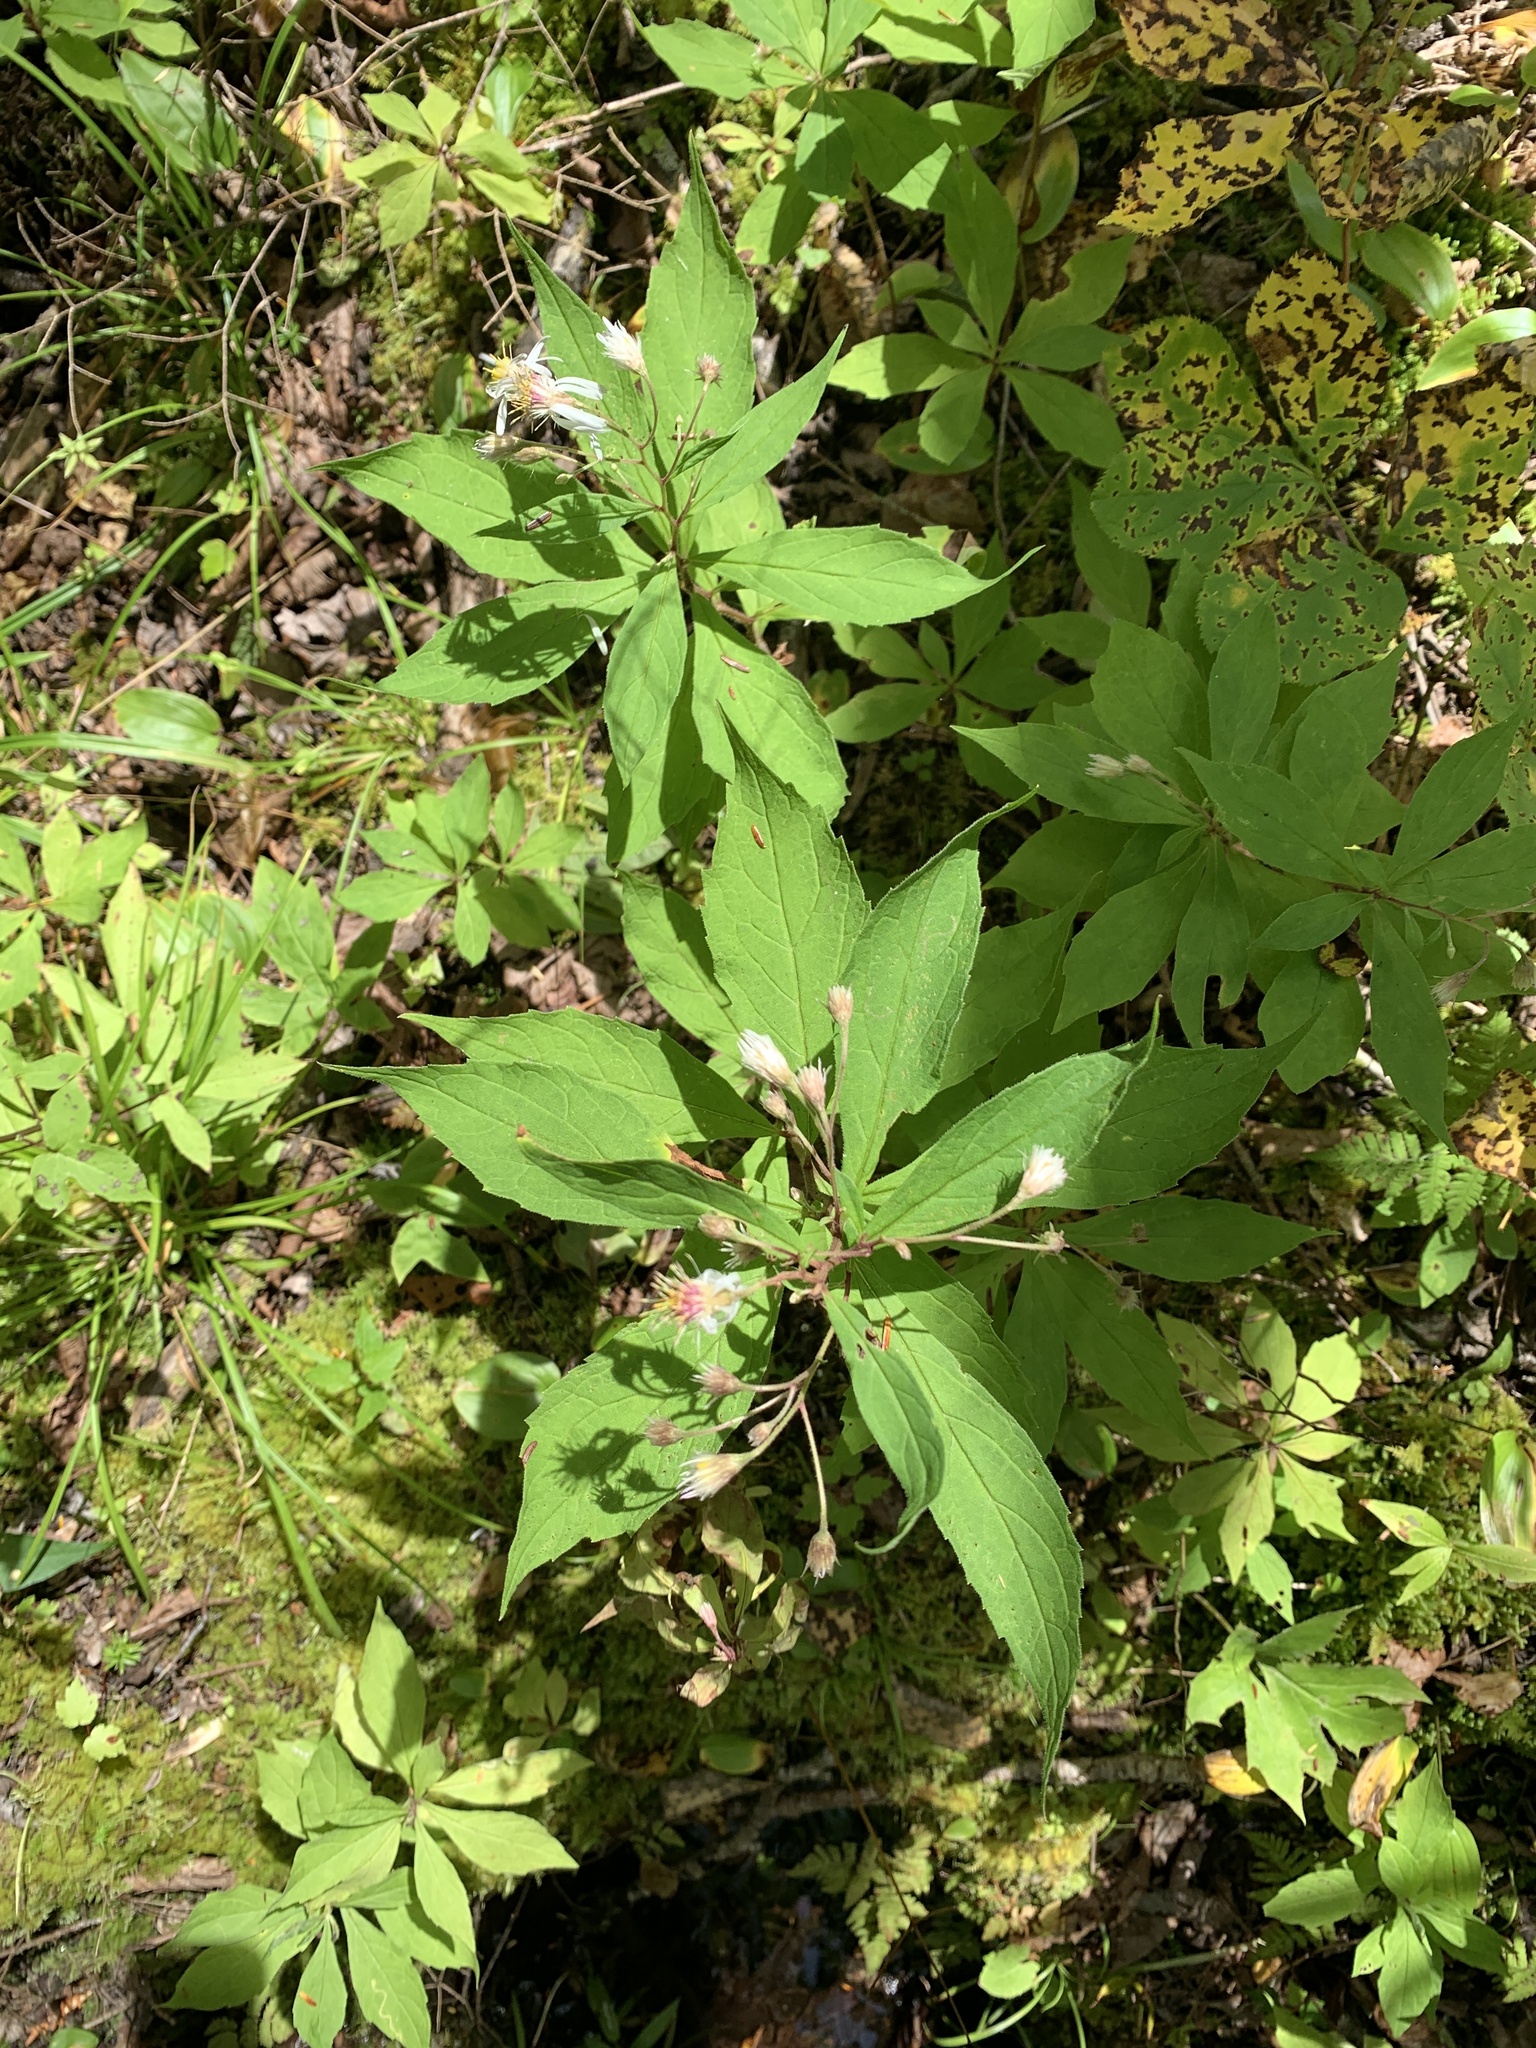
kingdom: Plantae
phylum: Tracheophyta
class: Magnoliopsida
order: Asterales
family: Asteraceae
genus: Oclemena
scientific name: Oclemena acuminata
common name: Mountain aster
